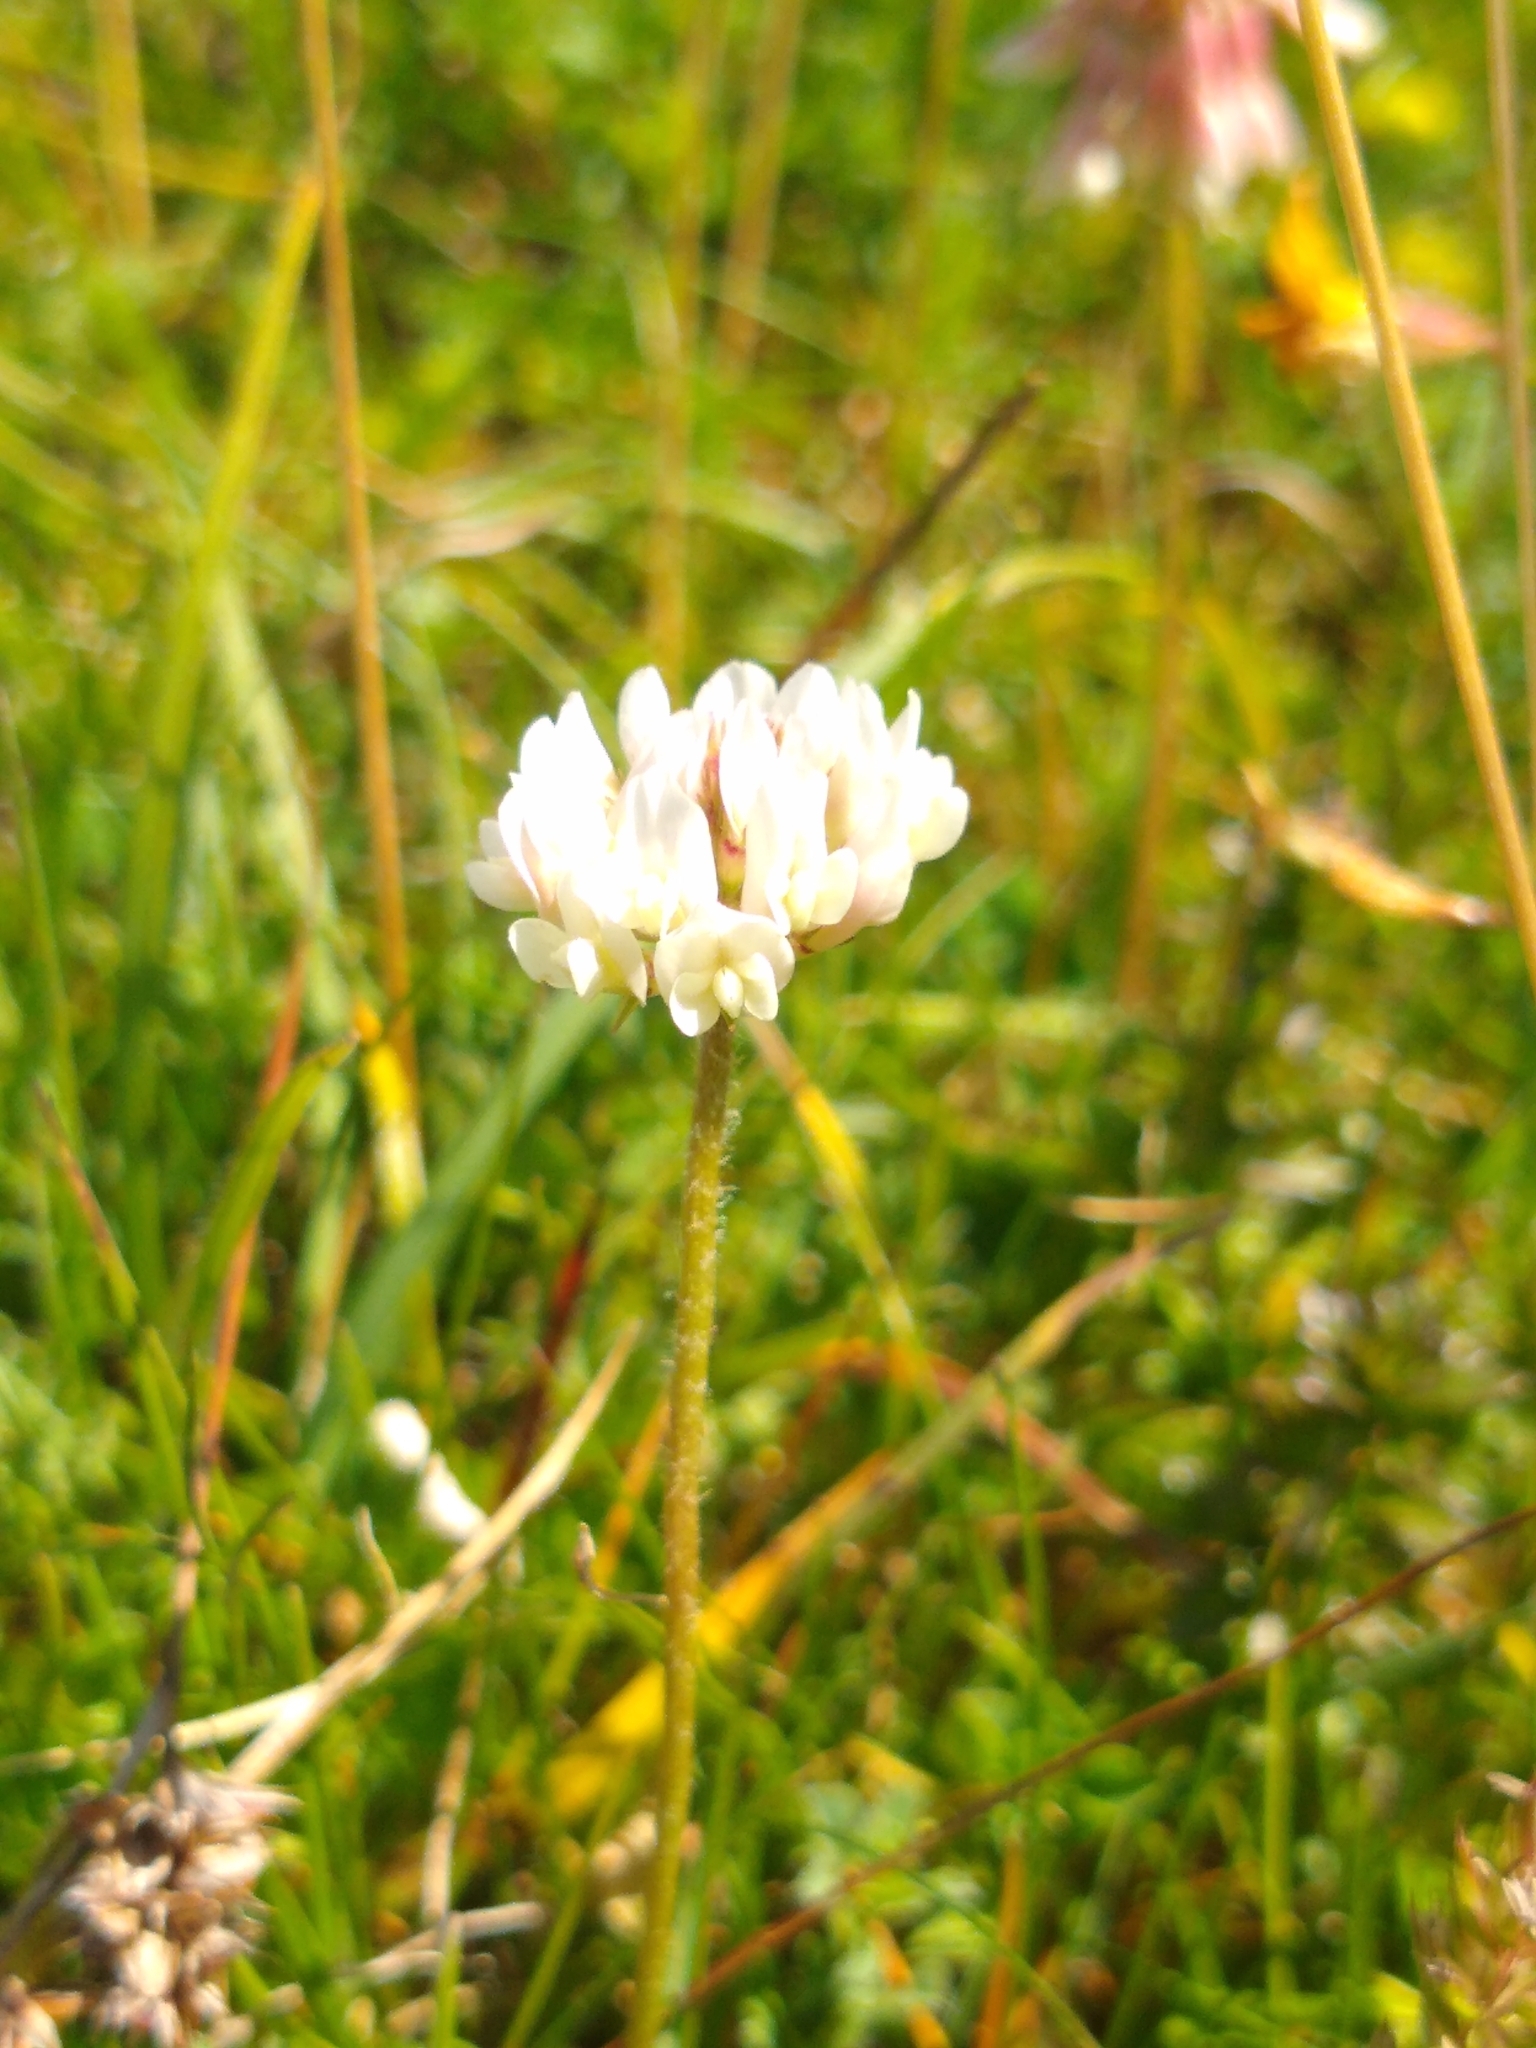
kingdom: Plantae
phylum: Tracheophyta
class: Magnoliopsida
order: Fabales
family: Fabaceae
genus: Trifolium
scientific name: Trifolium repens
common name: White clover
